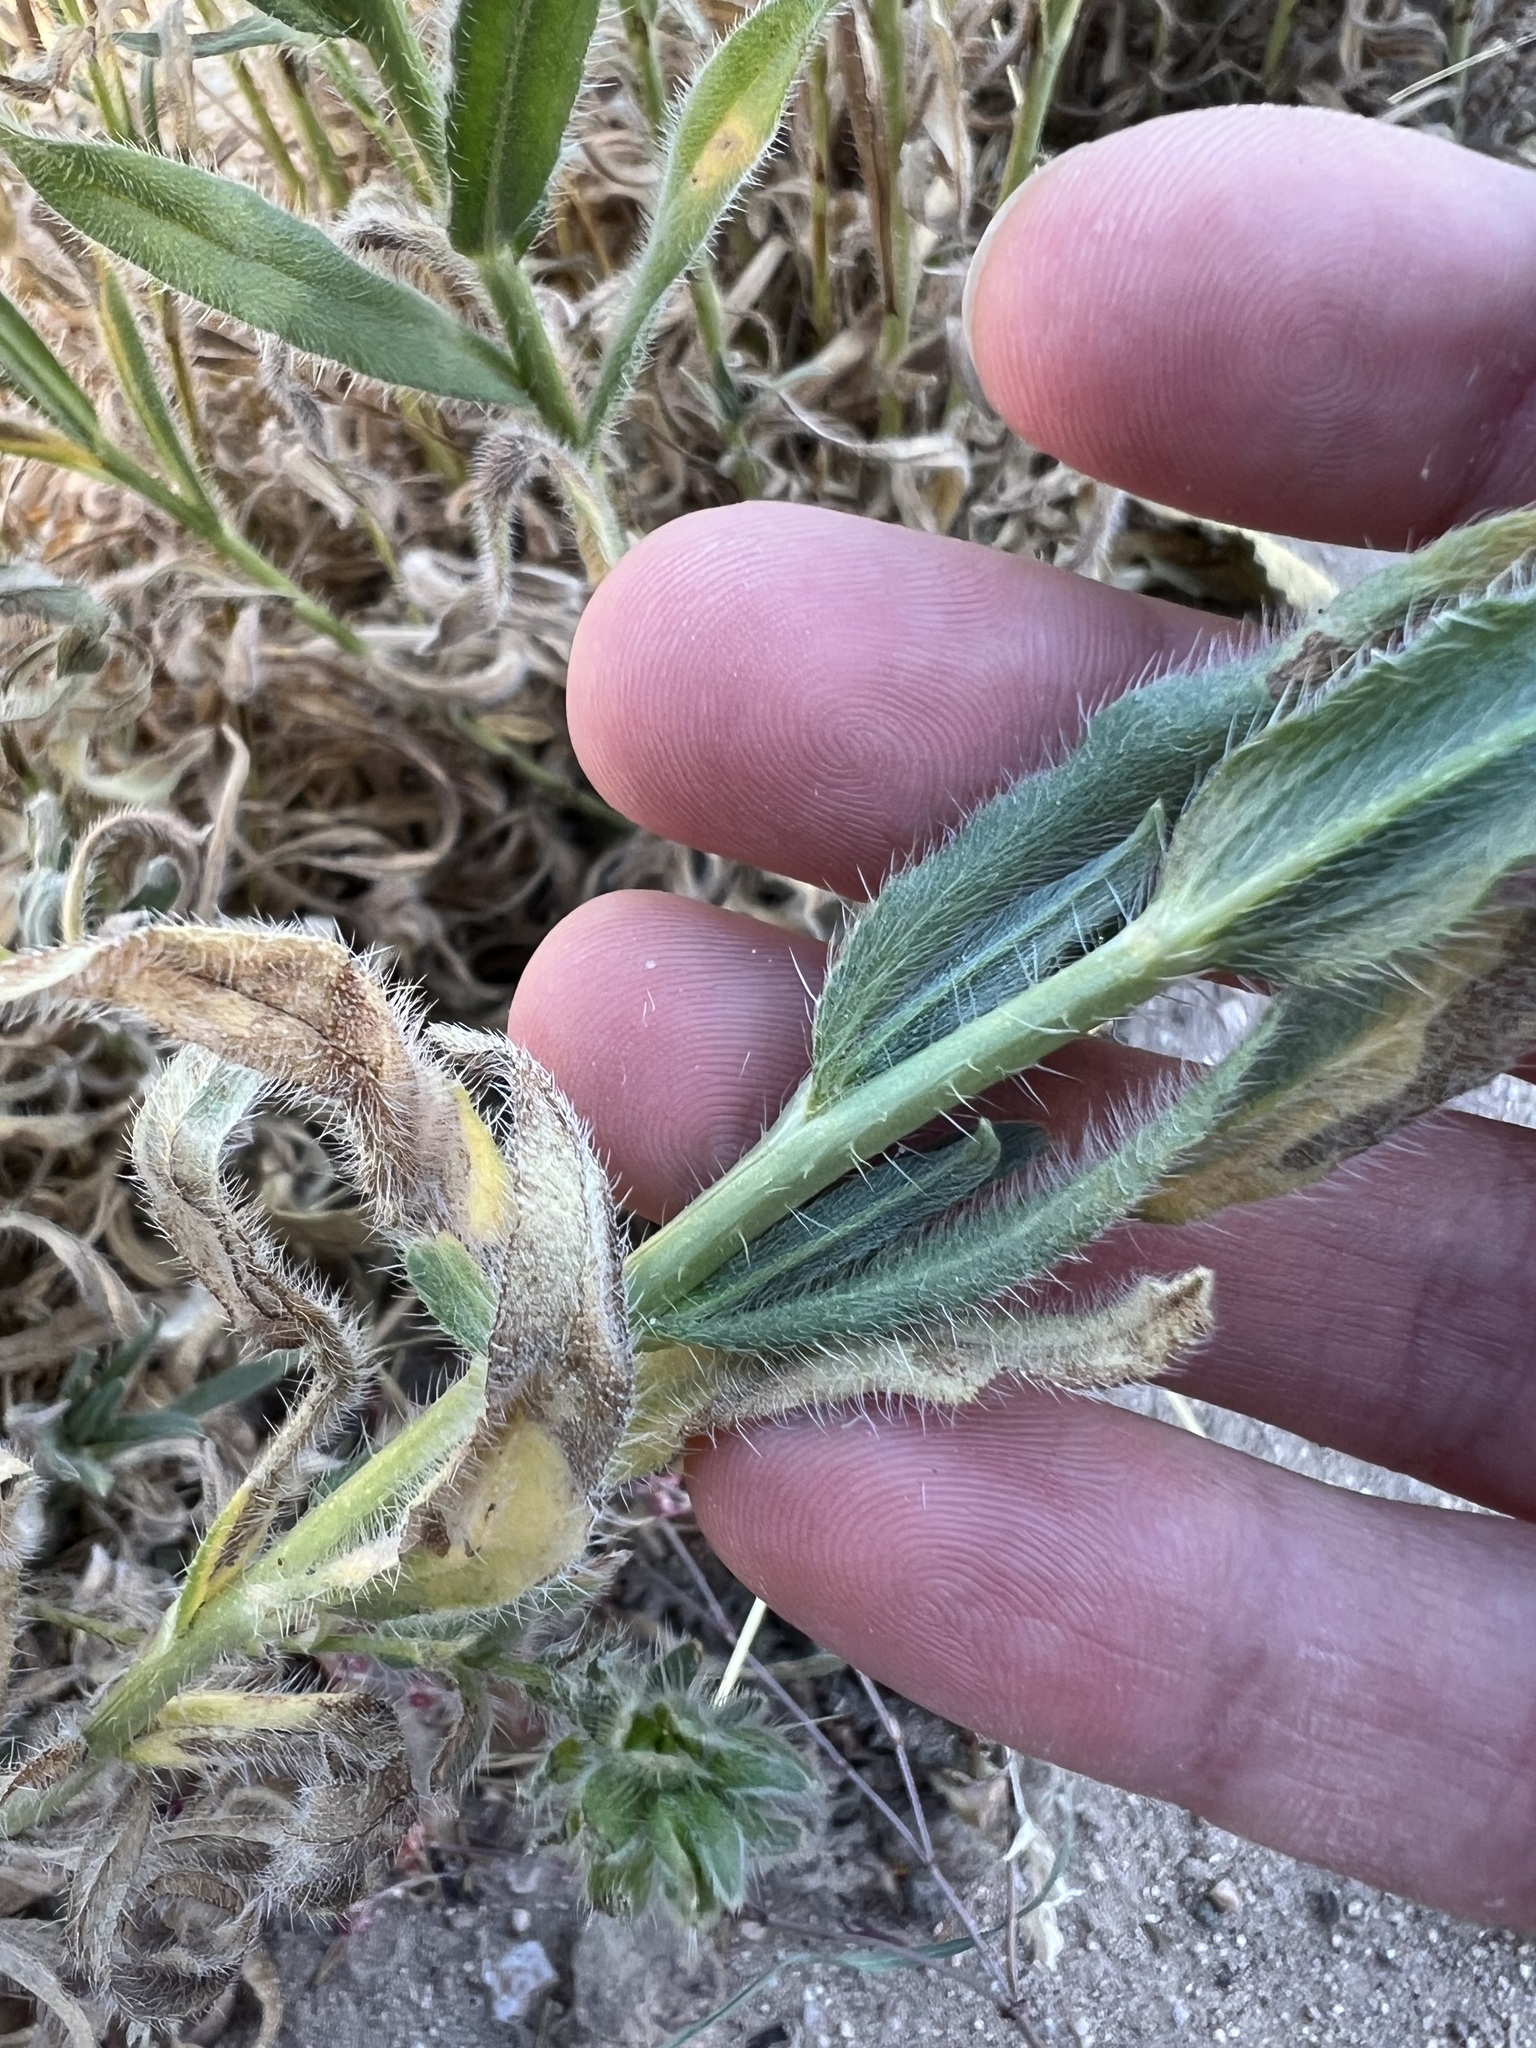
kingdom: Plantae
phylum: Tracheophyta
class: Magnoliopsida
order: Boraginales
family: Boraginaceae
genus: Amsinckia
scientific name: Amsinckia tessellata
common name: Tessellate fiddleneck
